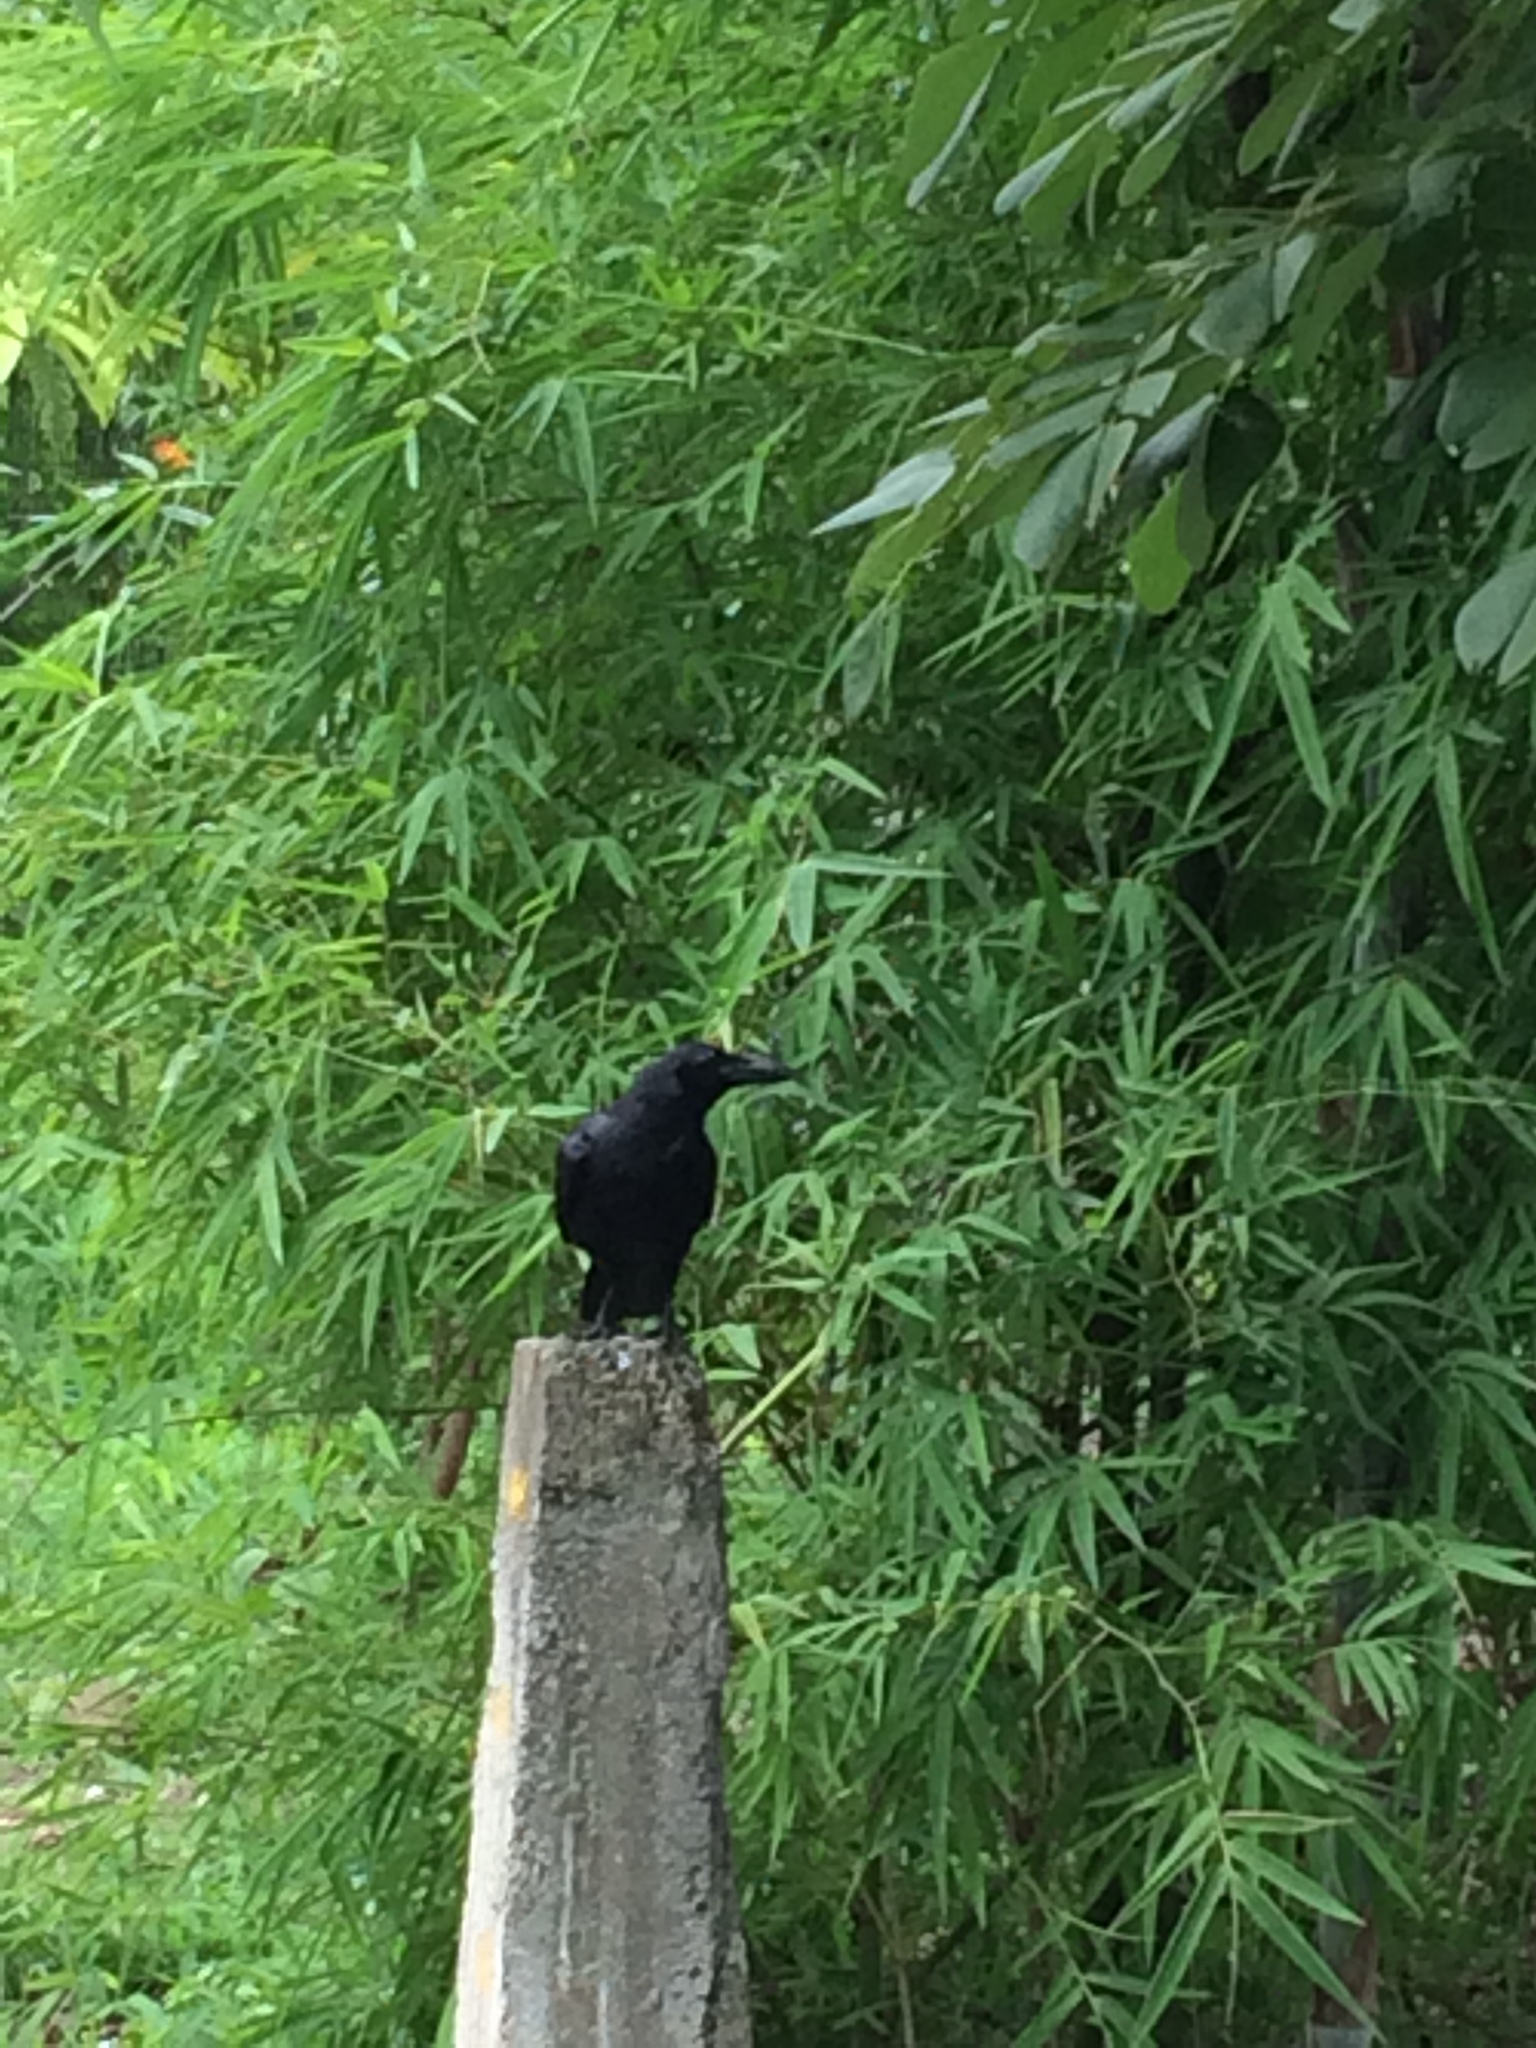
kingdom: Animalia
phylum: Chordata
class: Aves
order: Passeriformes
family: Corvidae
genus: Corvus
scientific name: Corvus macrorhynchos
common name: Large-billed crow
